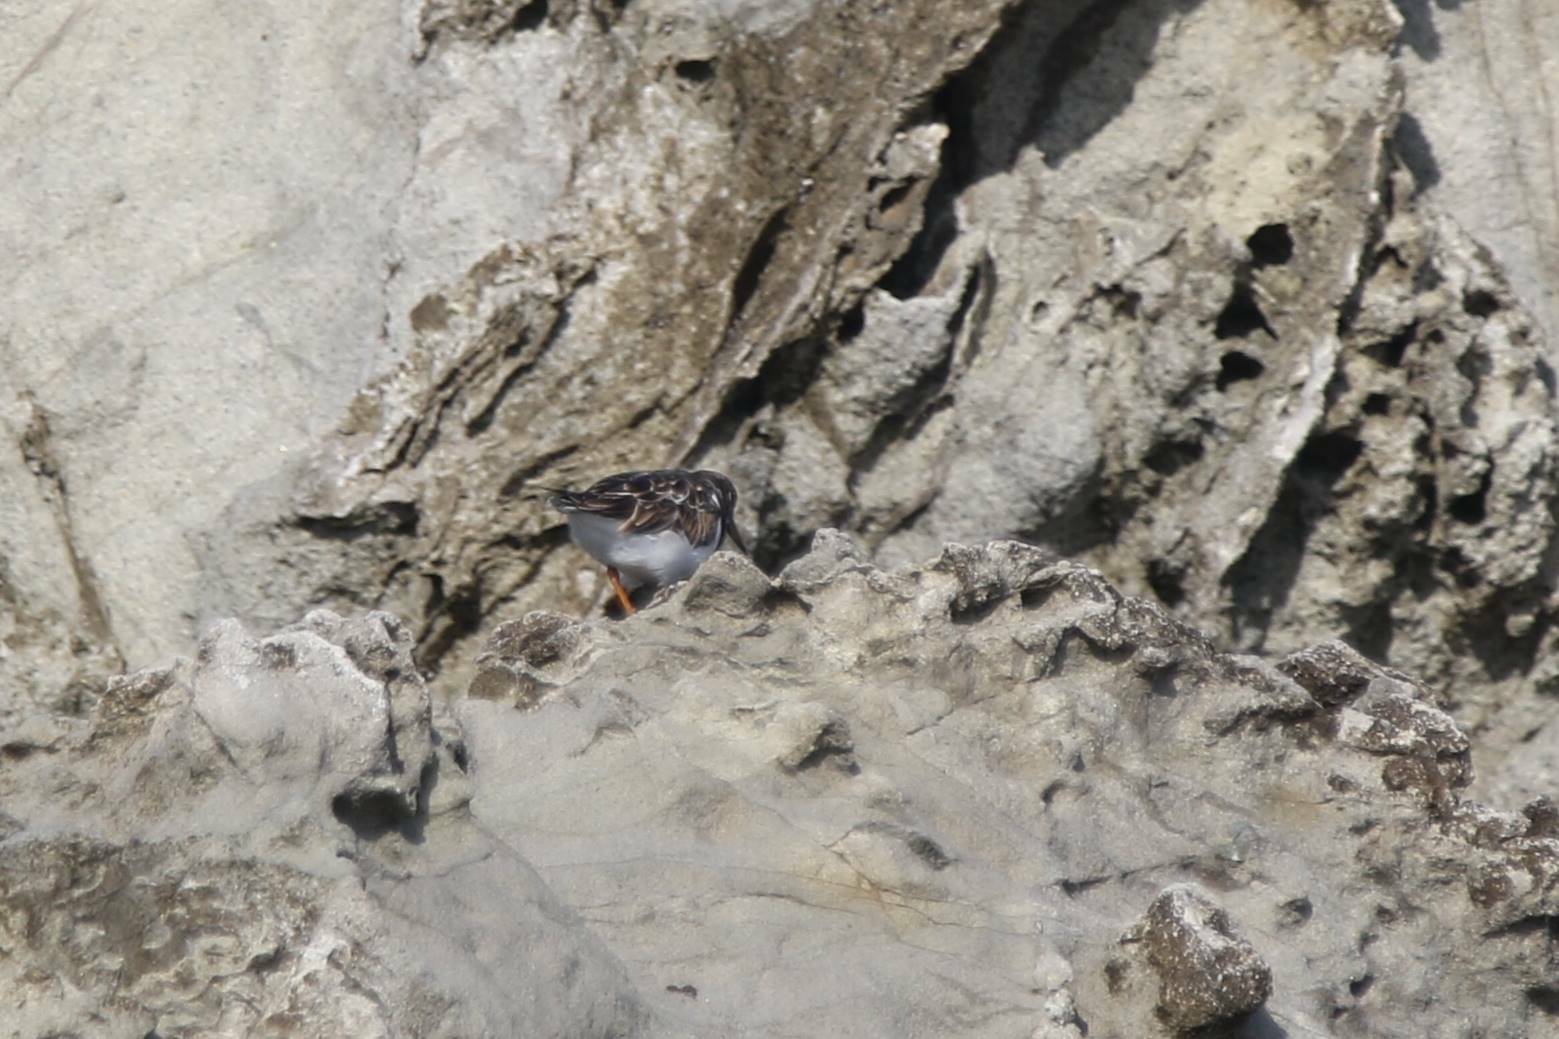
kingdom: Animalia
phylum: Chordata
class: Aves
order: Charadriiformes
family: Scolopacidae
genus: Arenaria
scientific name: Arenaria interpres
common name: Ruddy turnstone
